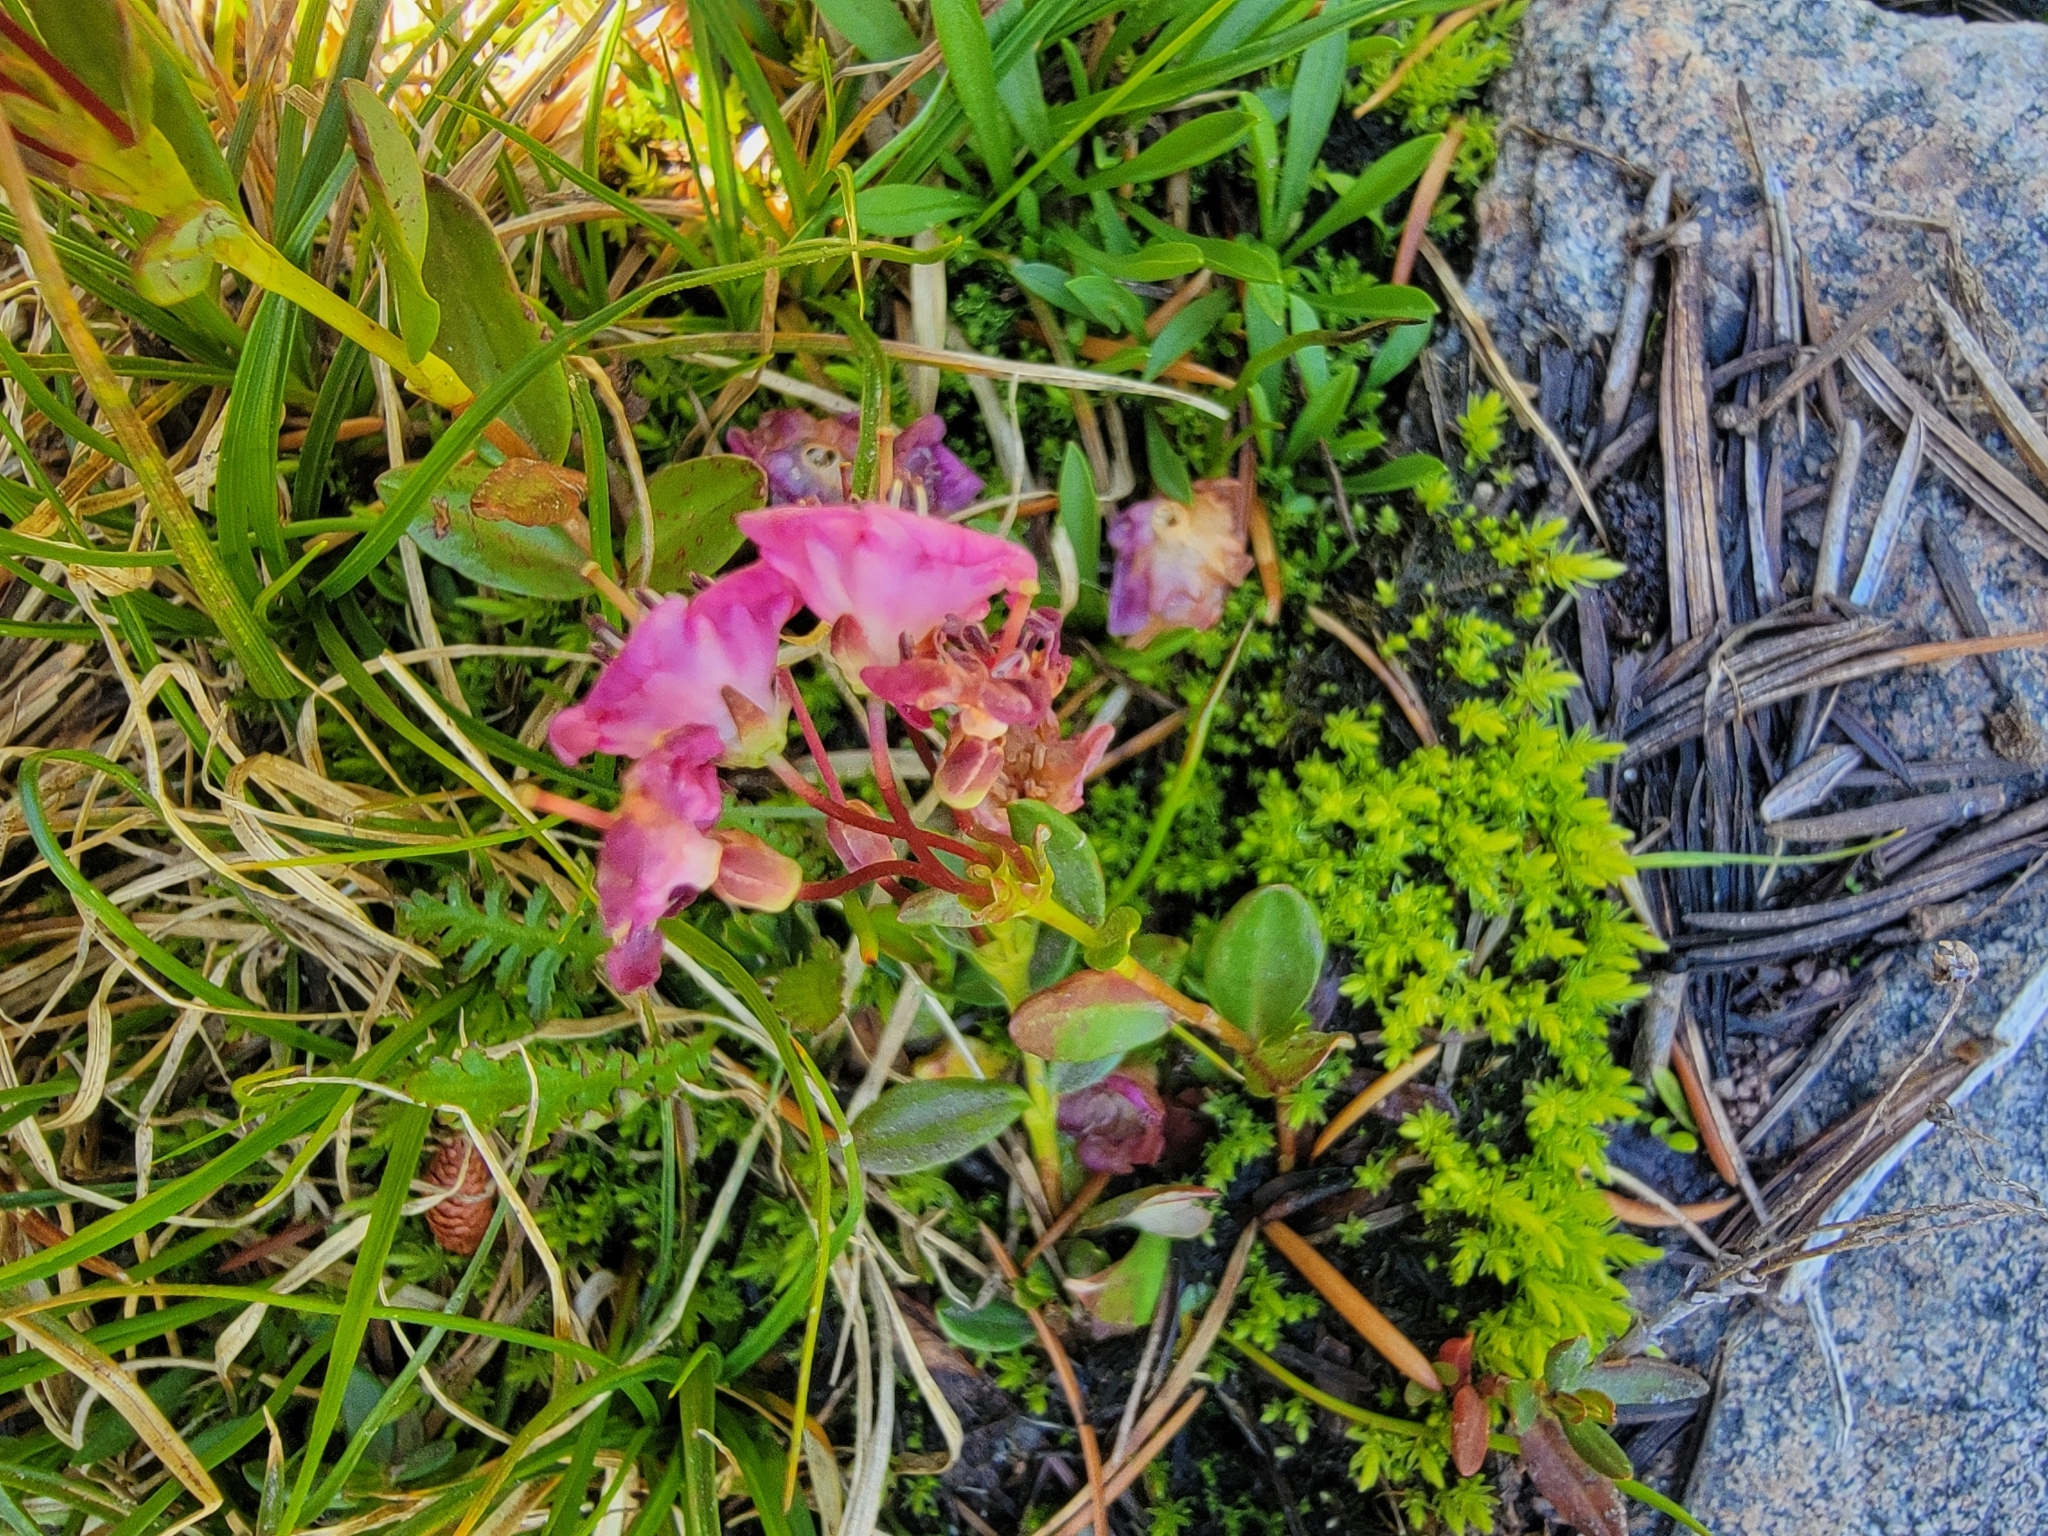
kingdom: Plantae
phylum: Tracheophyta
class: Magnoliopsida
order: Ericales
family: Ericaceae
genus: Kalmia
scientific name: Kalmia microphylla
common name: Alpine bog laurel
